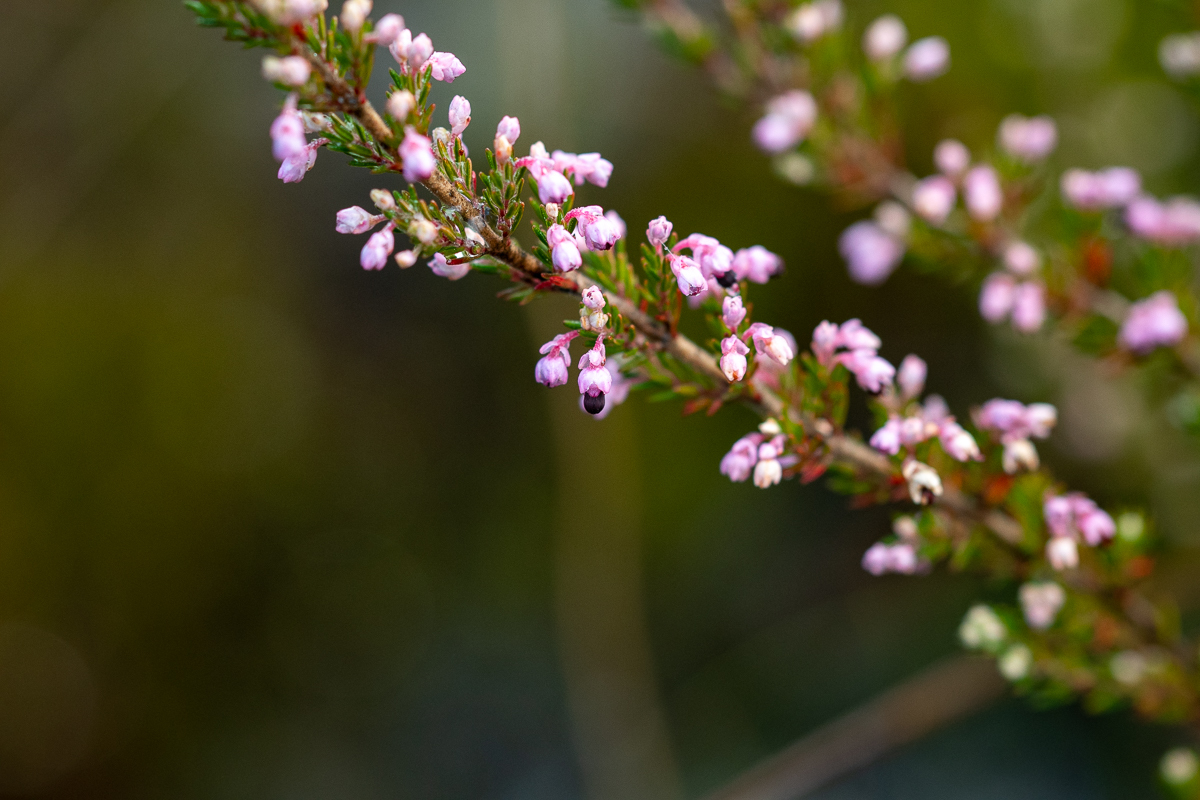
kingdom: Plantae
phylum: Tracheophyta
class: Magnoliopsida
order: Ericales
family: Ericaceae
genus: Erica
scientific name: Erica placentiflora
